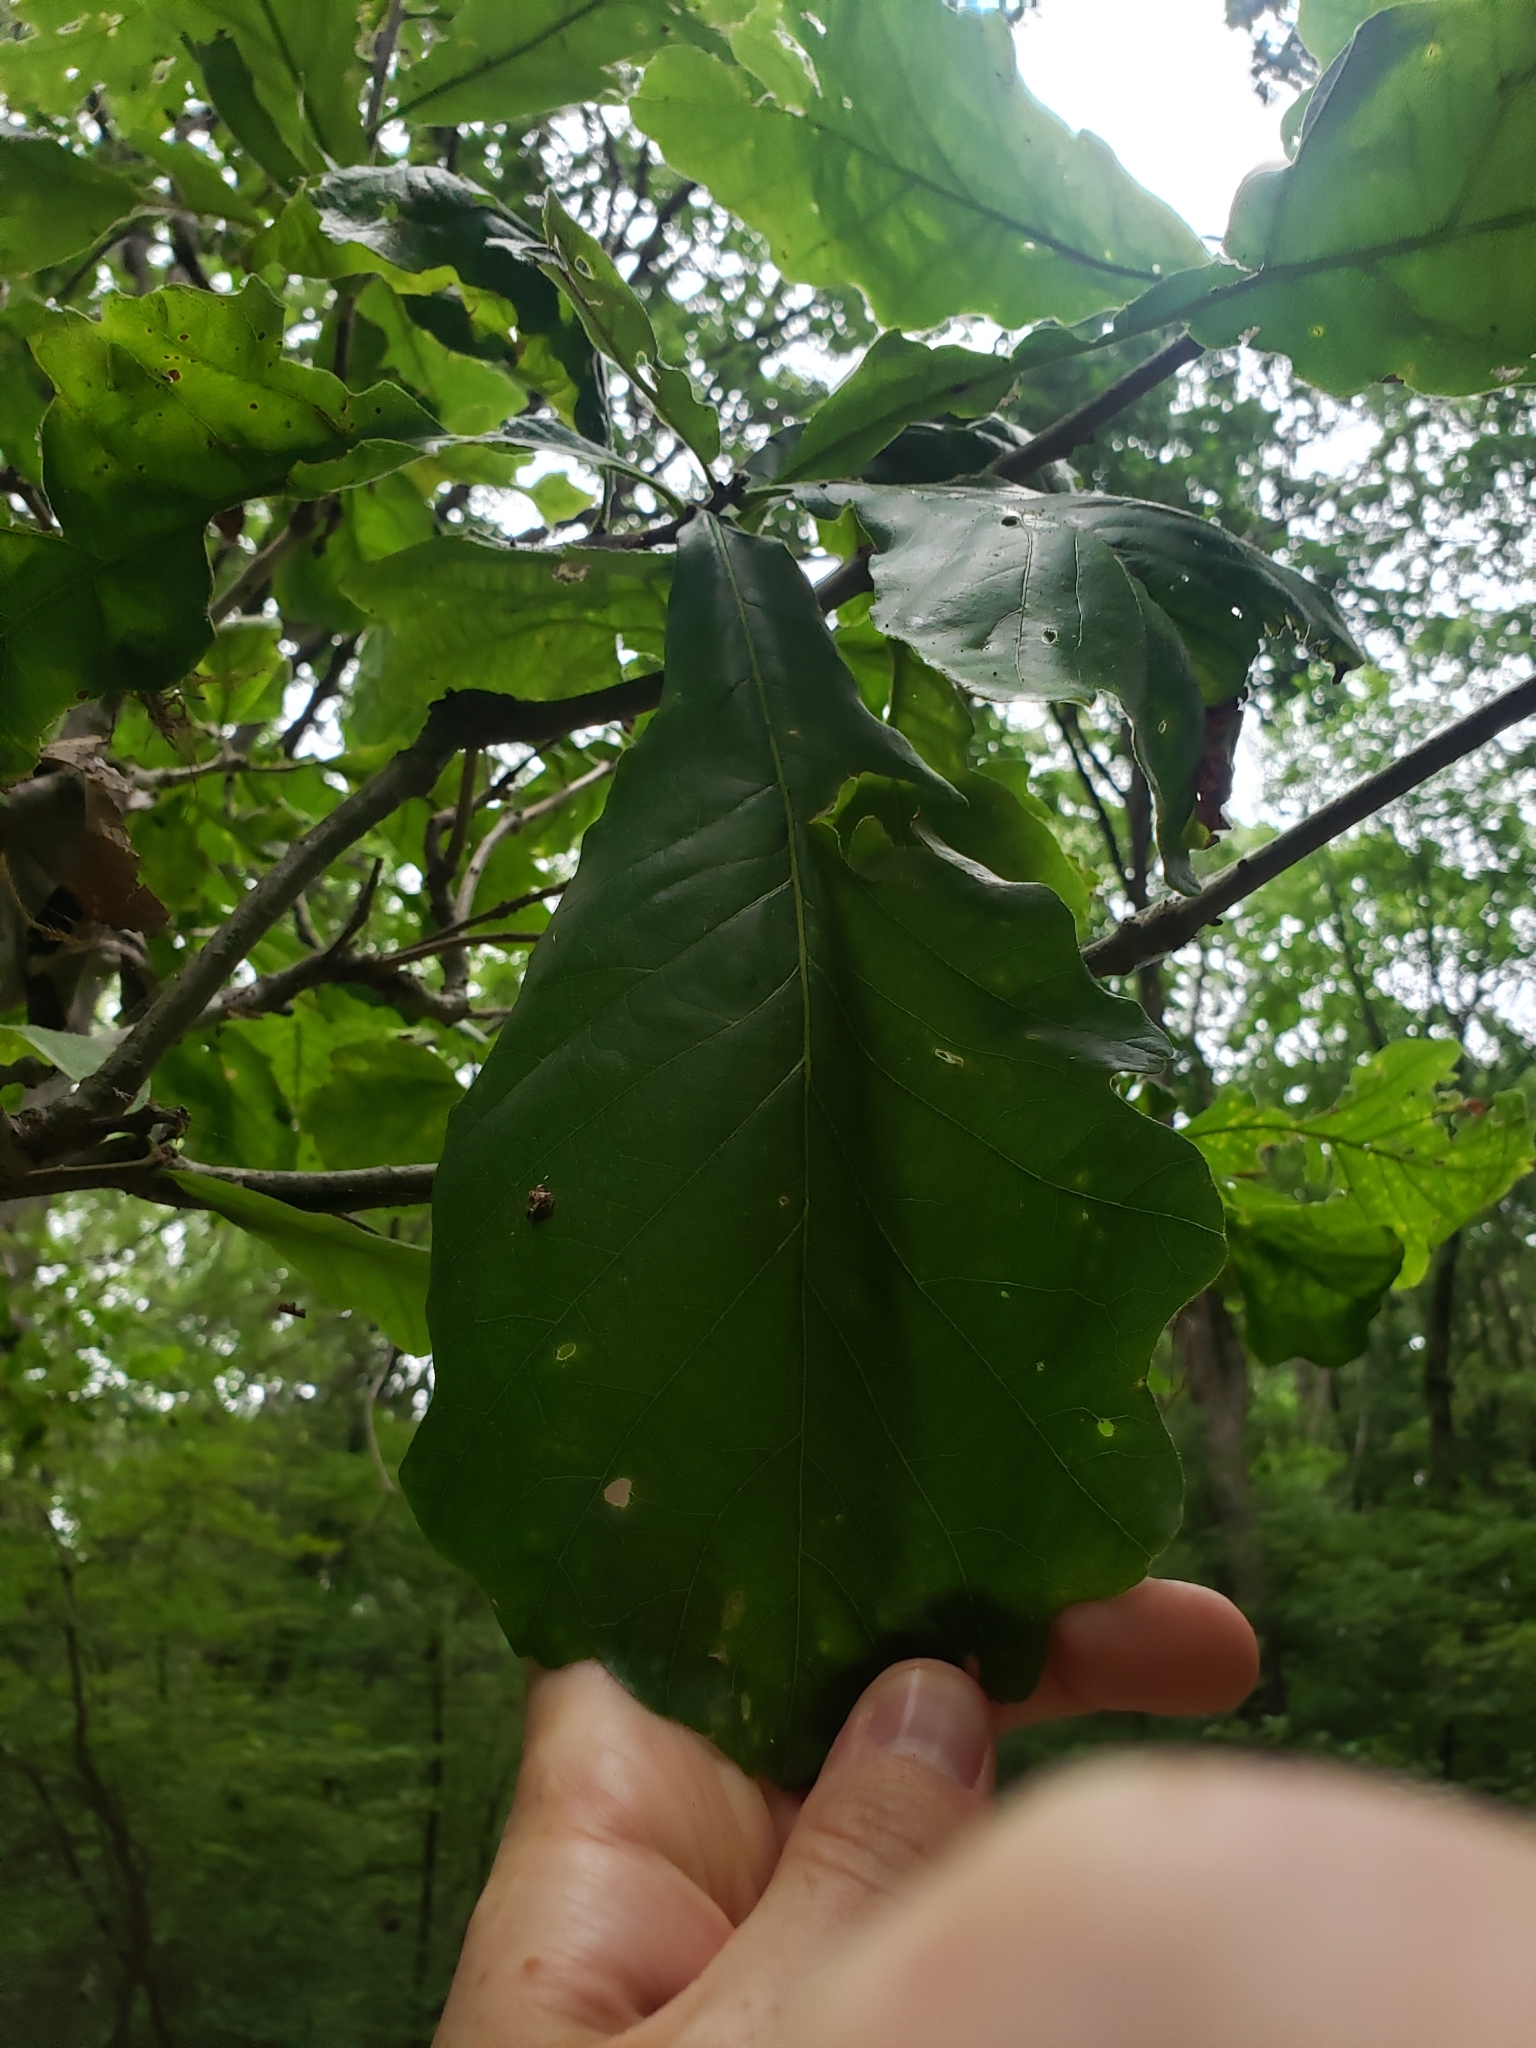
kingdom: Plantae
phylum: Tracheophyta
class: Magnoliopsida
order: Fagales
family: Fagaceae
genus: Quercus
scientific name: Quercus bicolor
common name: Swamp white oak
